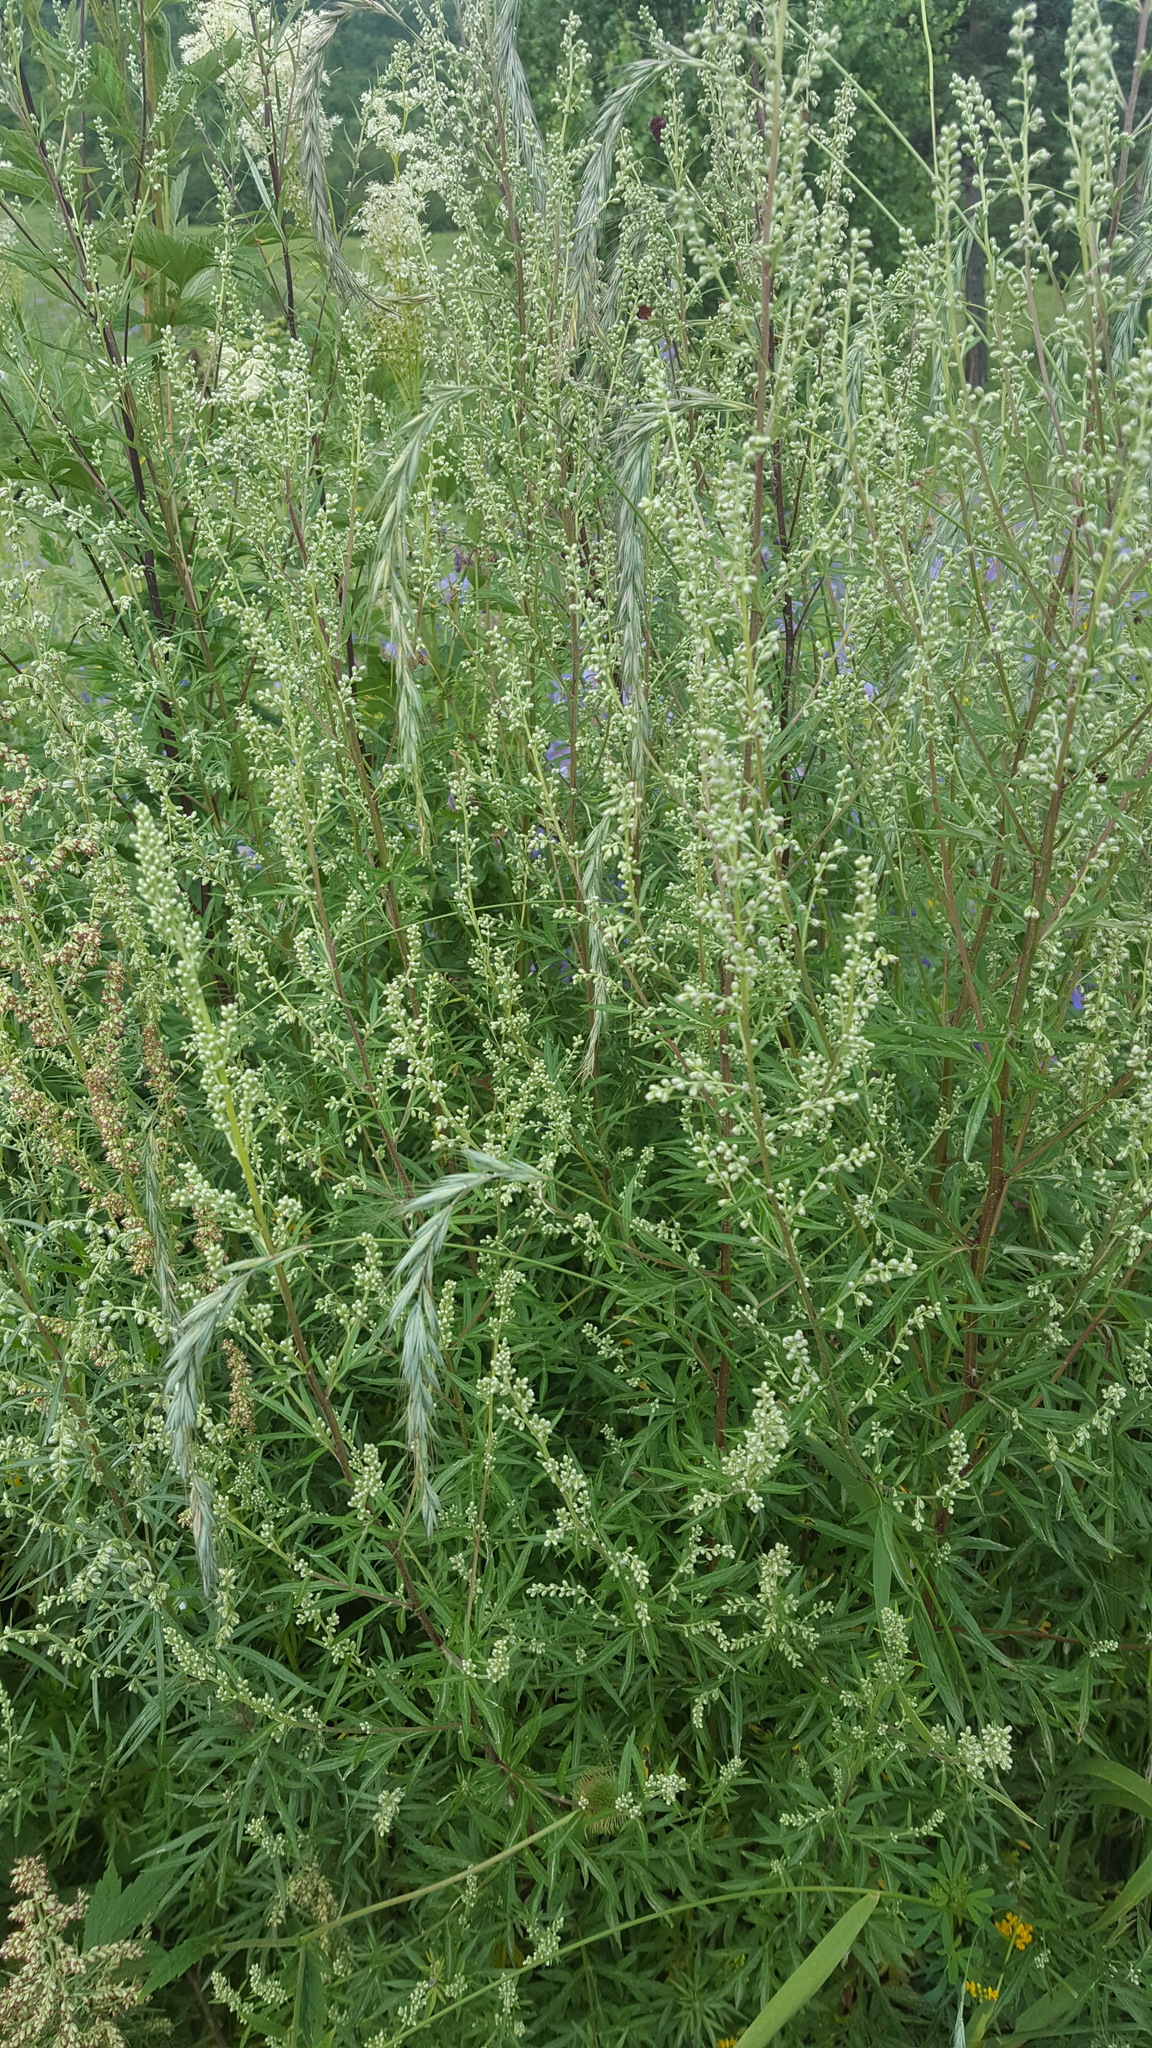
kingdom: Plantae
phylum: Tracheophyta
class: Magnoliopsida
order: Asterales
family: Asteraceae
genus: Artemisia
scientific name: Artemisia vulgaris
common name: Mugwort
